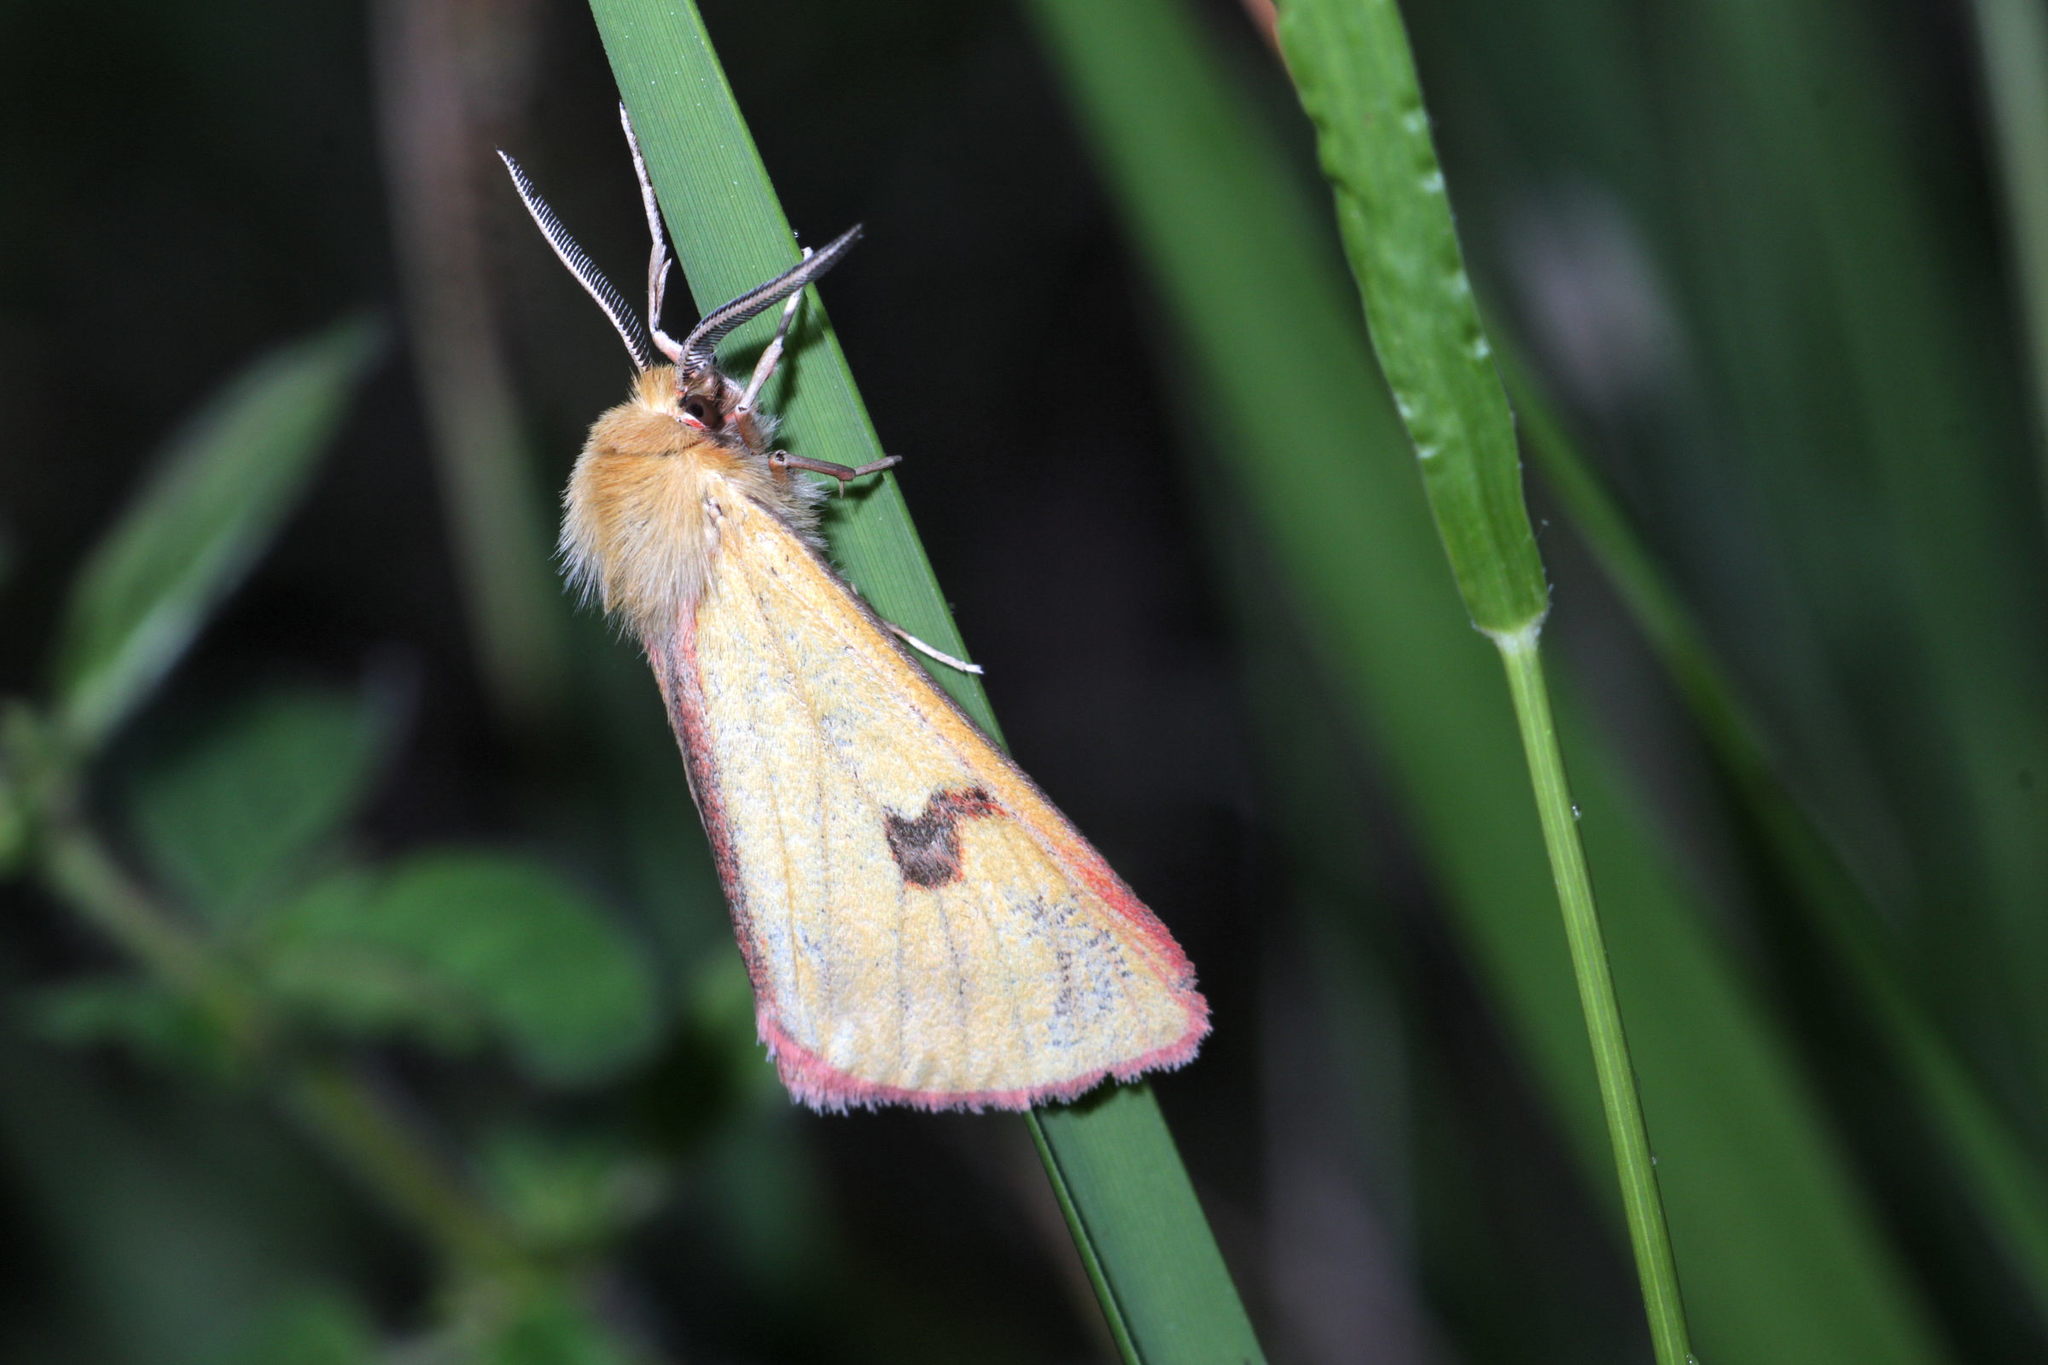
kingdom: Animalia
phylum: Arthropoda
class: Insecta
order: Lepidoptera
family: Erebidae
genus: Diacrisia
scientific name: Diacrisia sannio
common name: Clouded buff
